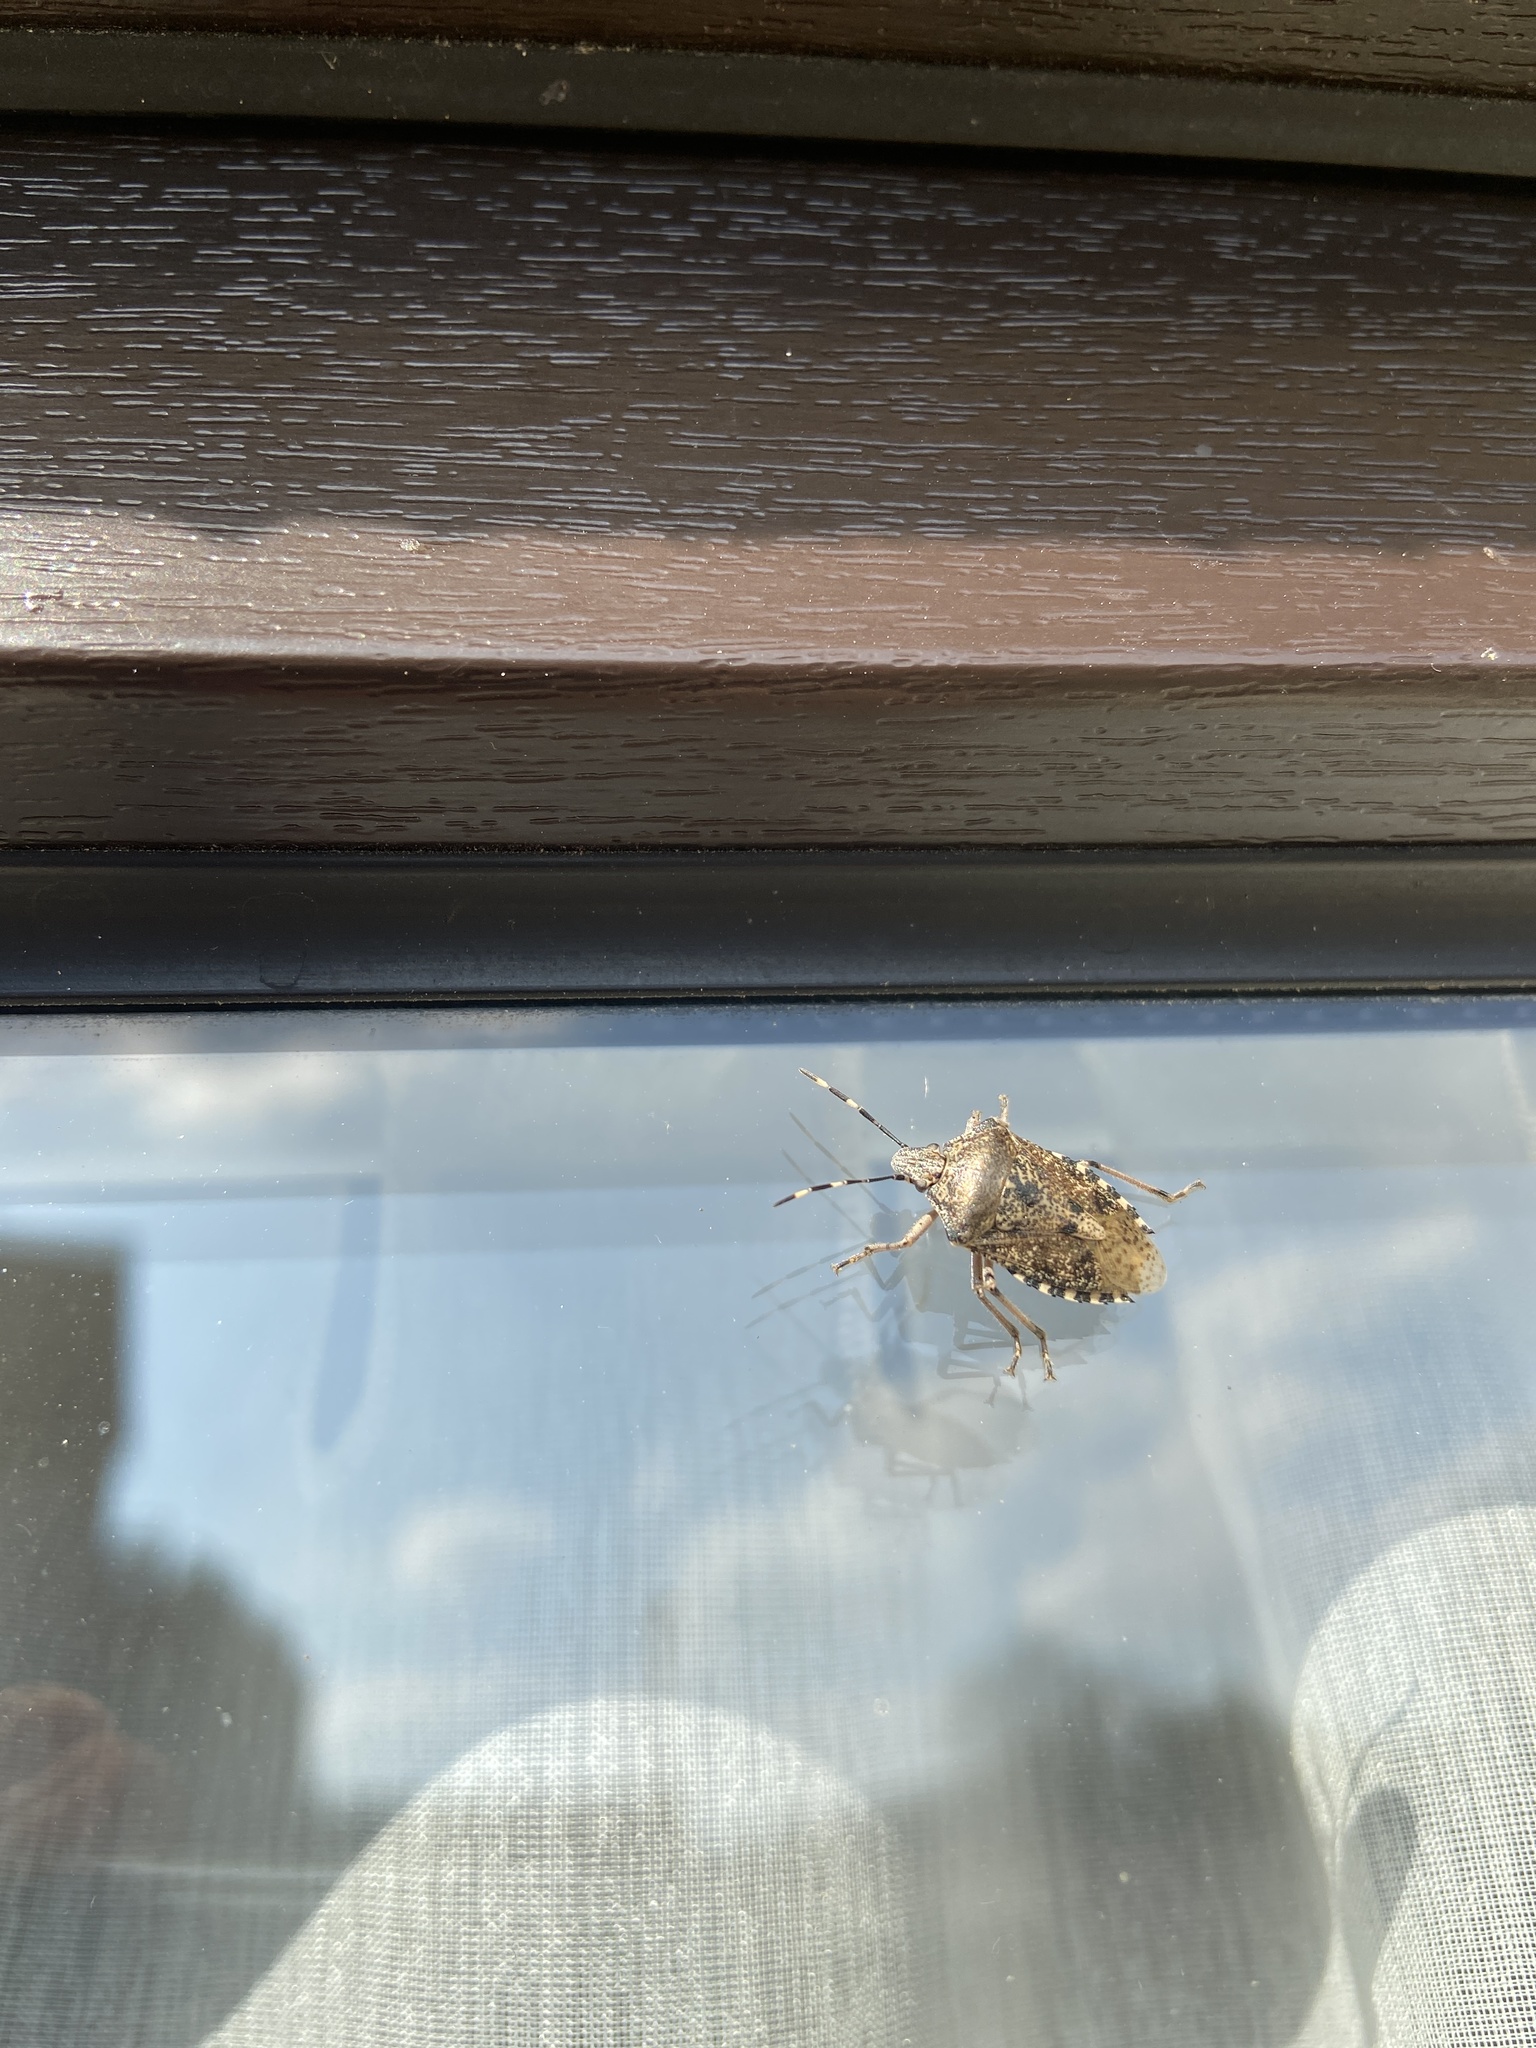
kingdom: Animalia
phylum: Arthropoda
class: Insecta
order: Hemiptera
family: Pentatomidae
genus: Rhaphigaster
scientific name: Rhaphigaster nebulosa
